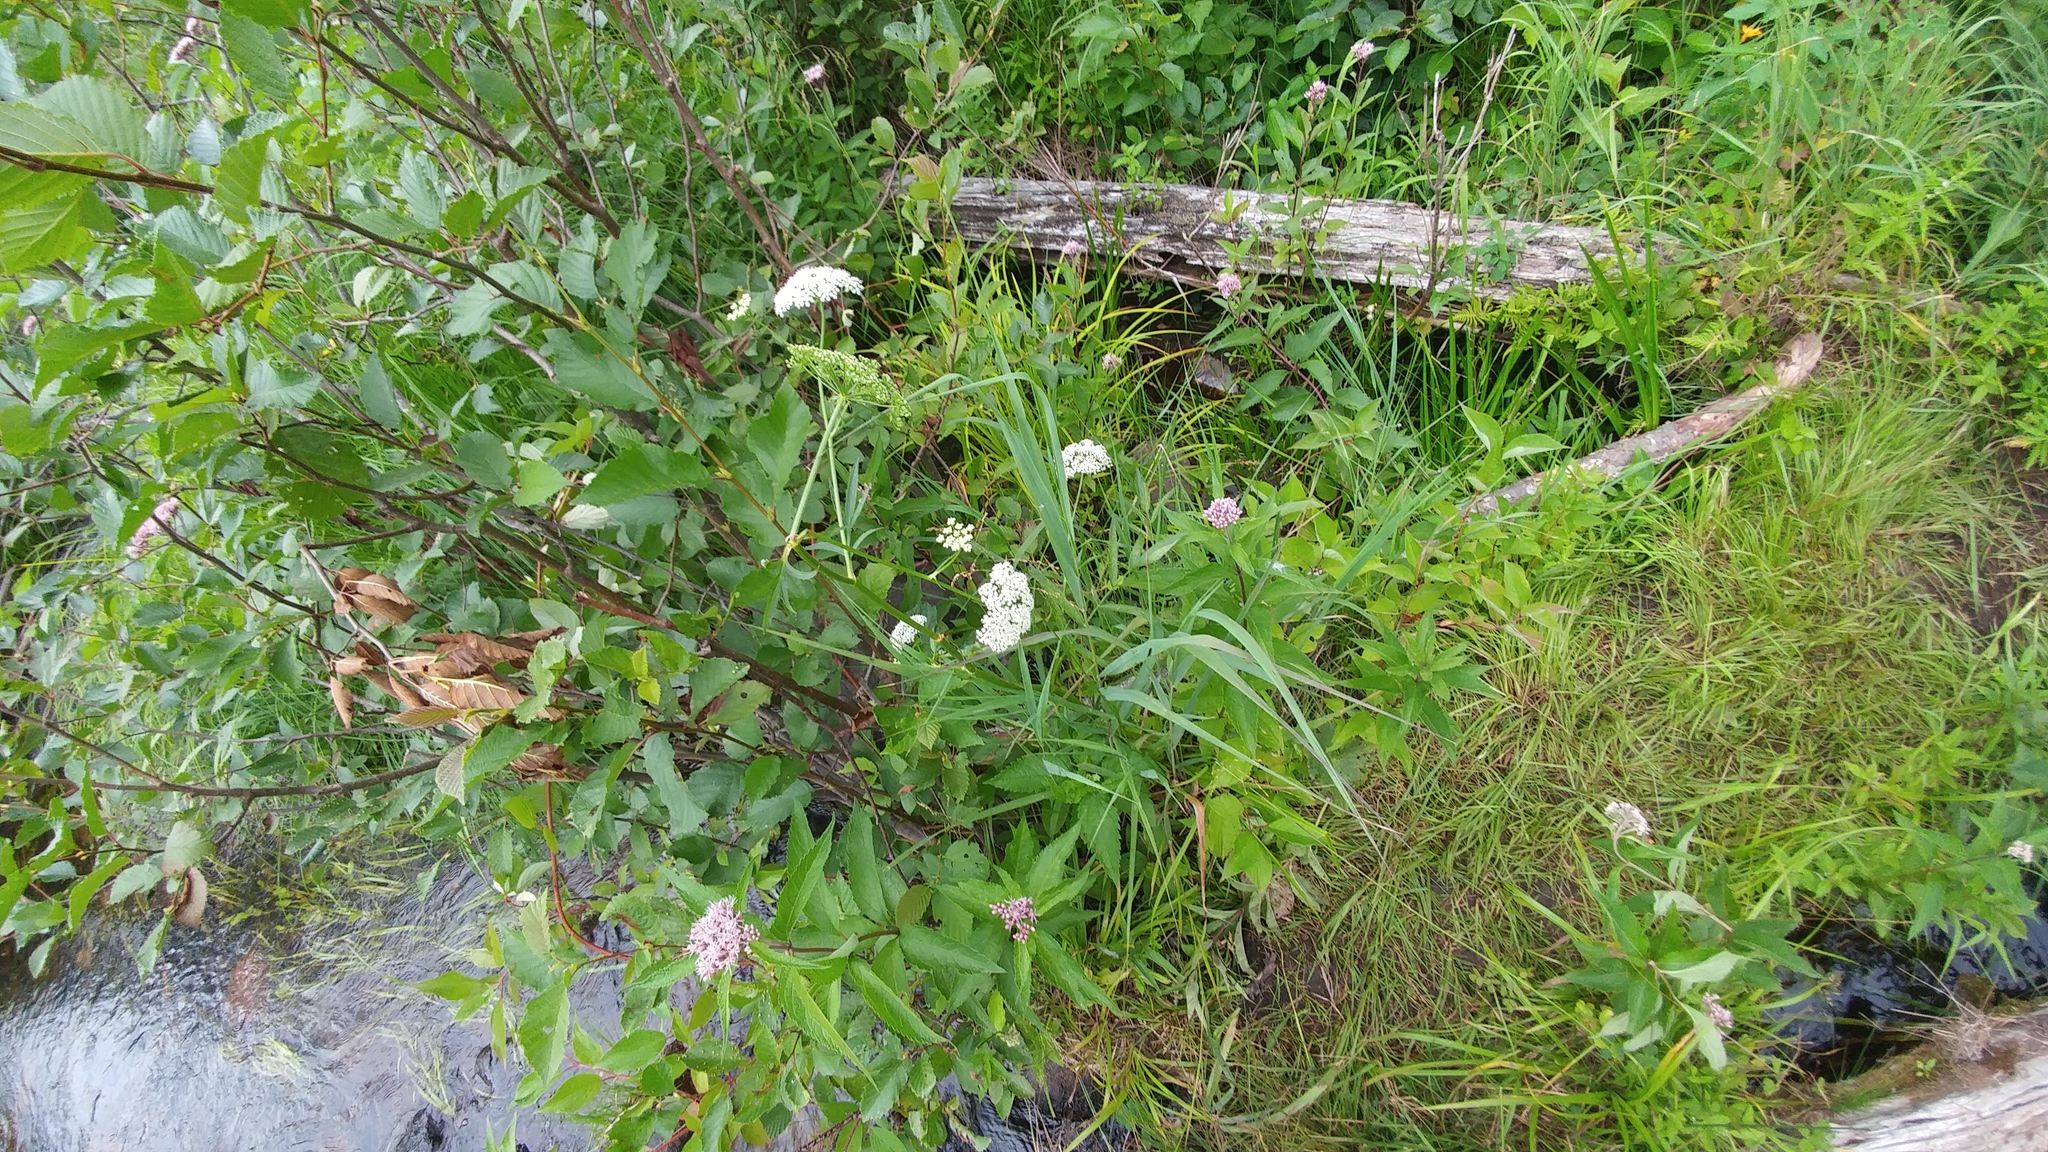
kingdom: Plantae
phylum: Tracheophyta
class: Magnoliopsida
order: Asterales
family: Asteraceae
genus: Eutrochium
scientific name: Eutrochium maculatum
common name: Spotted joe pye weed
